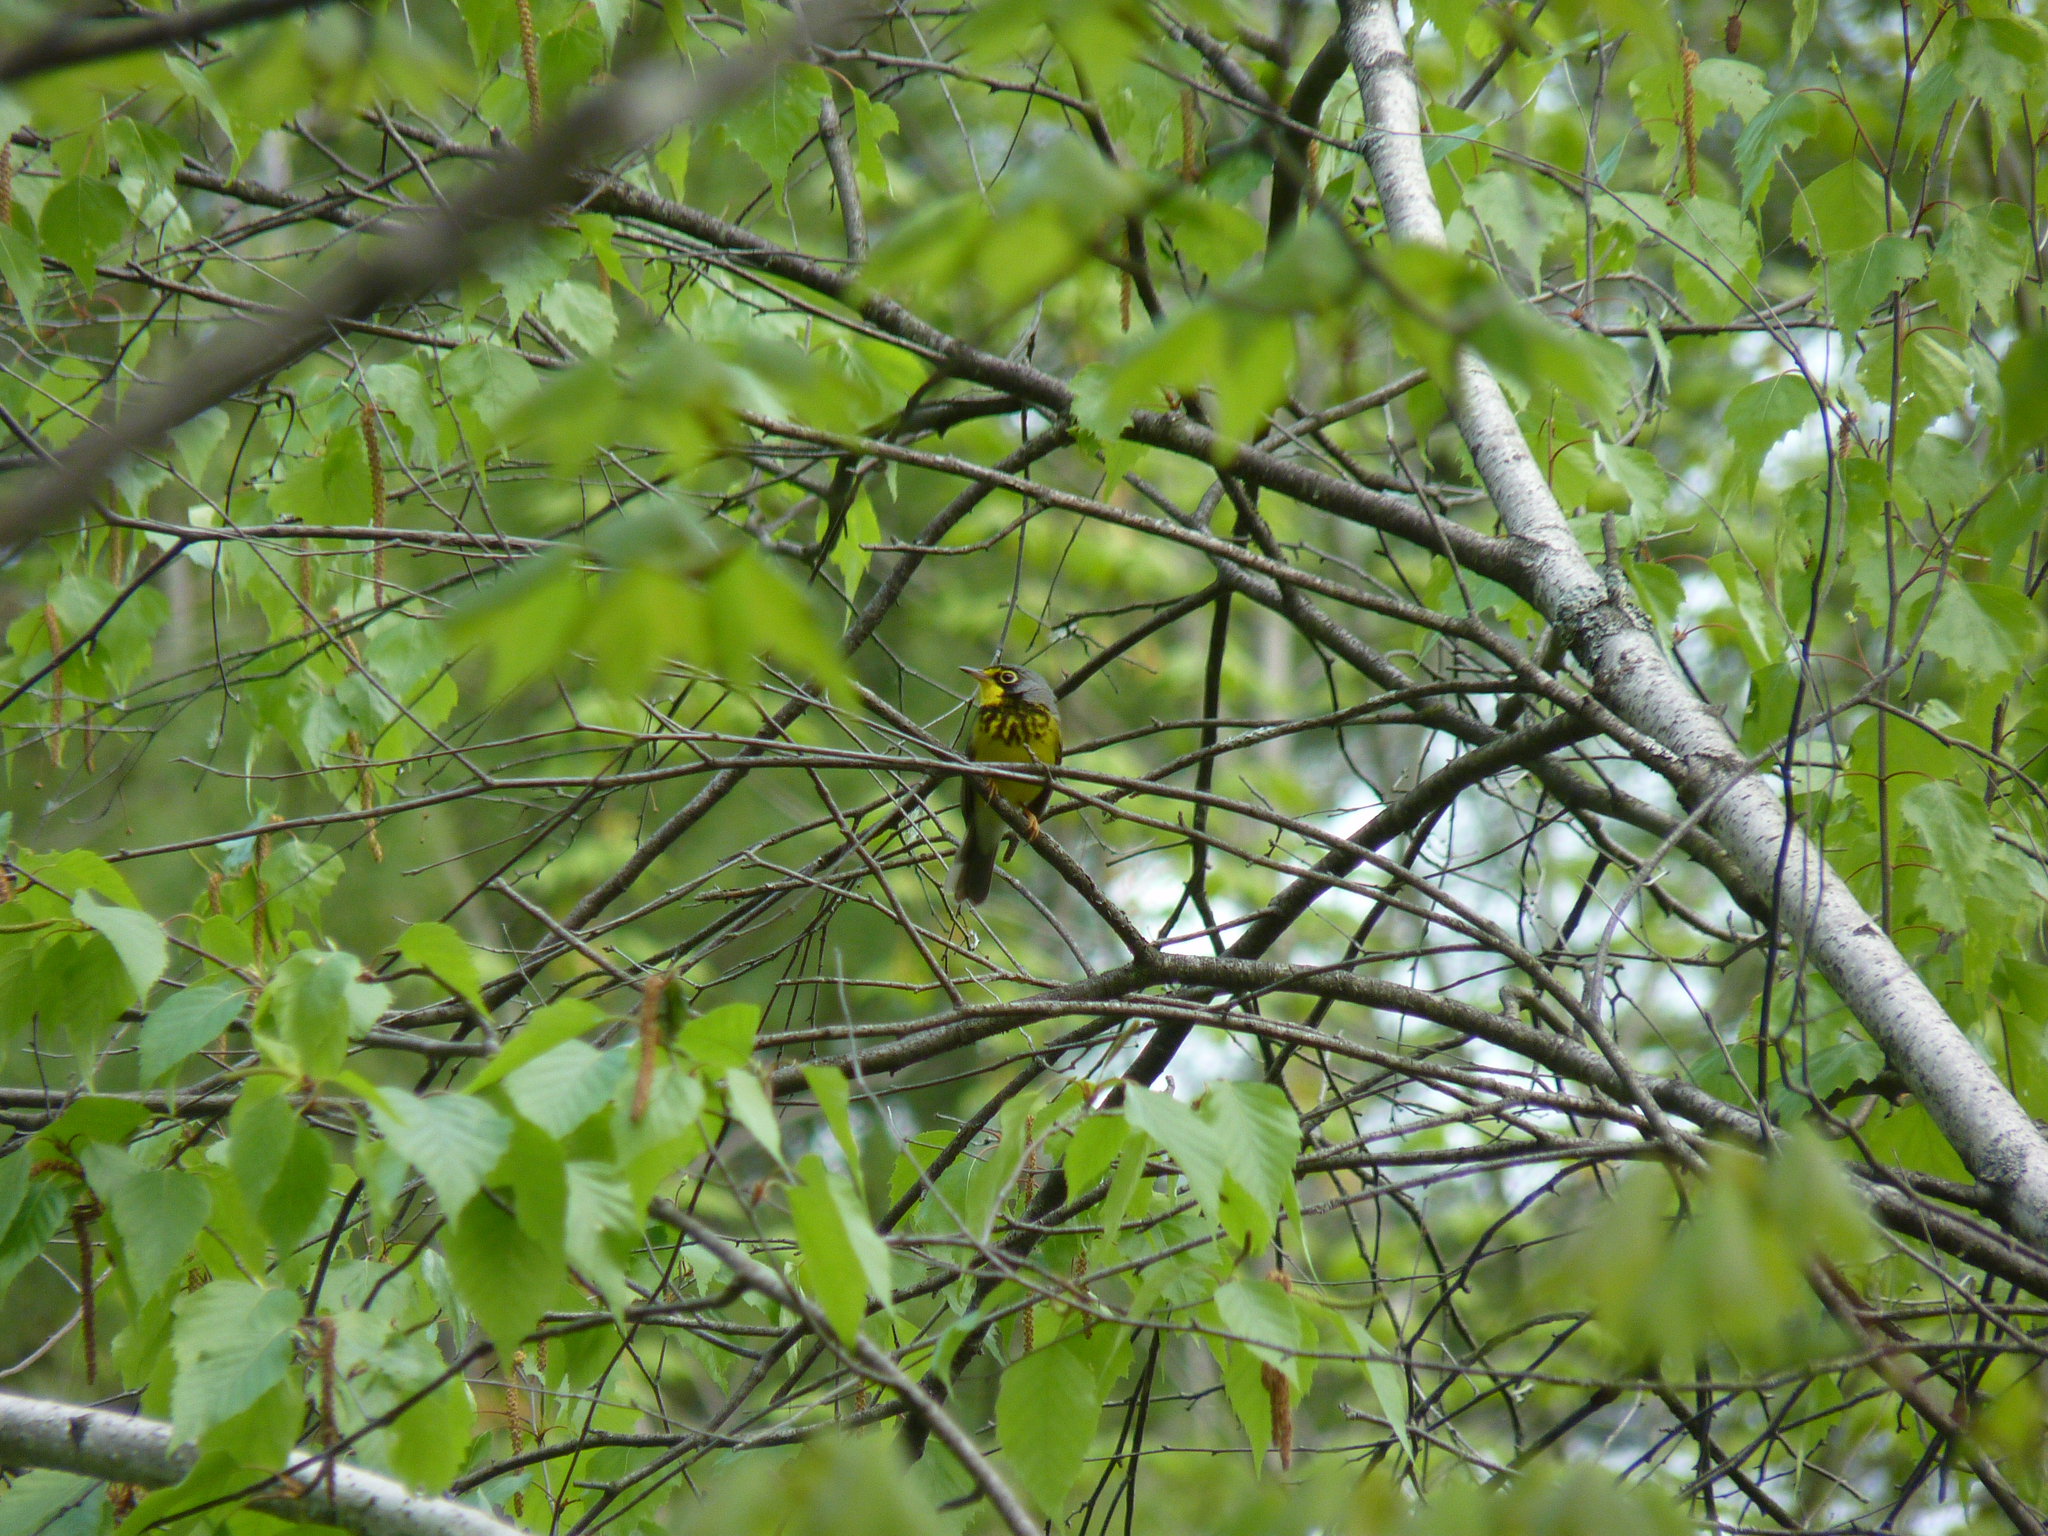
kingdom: Animalia
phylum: Chordata
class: Aves
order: Passeriformes
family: Parulidae
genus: Cardellina
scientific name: Cardellina canadensis
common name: Canada warbler
